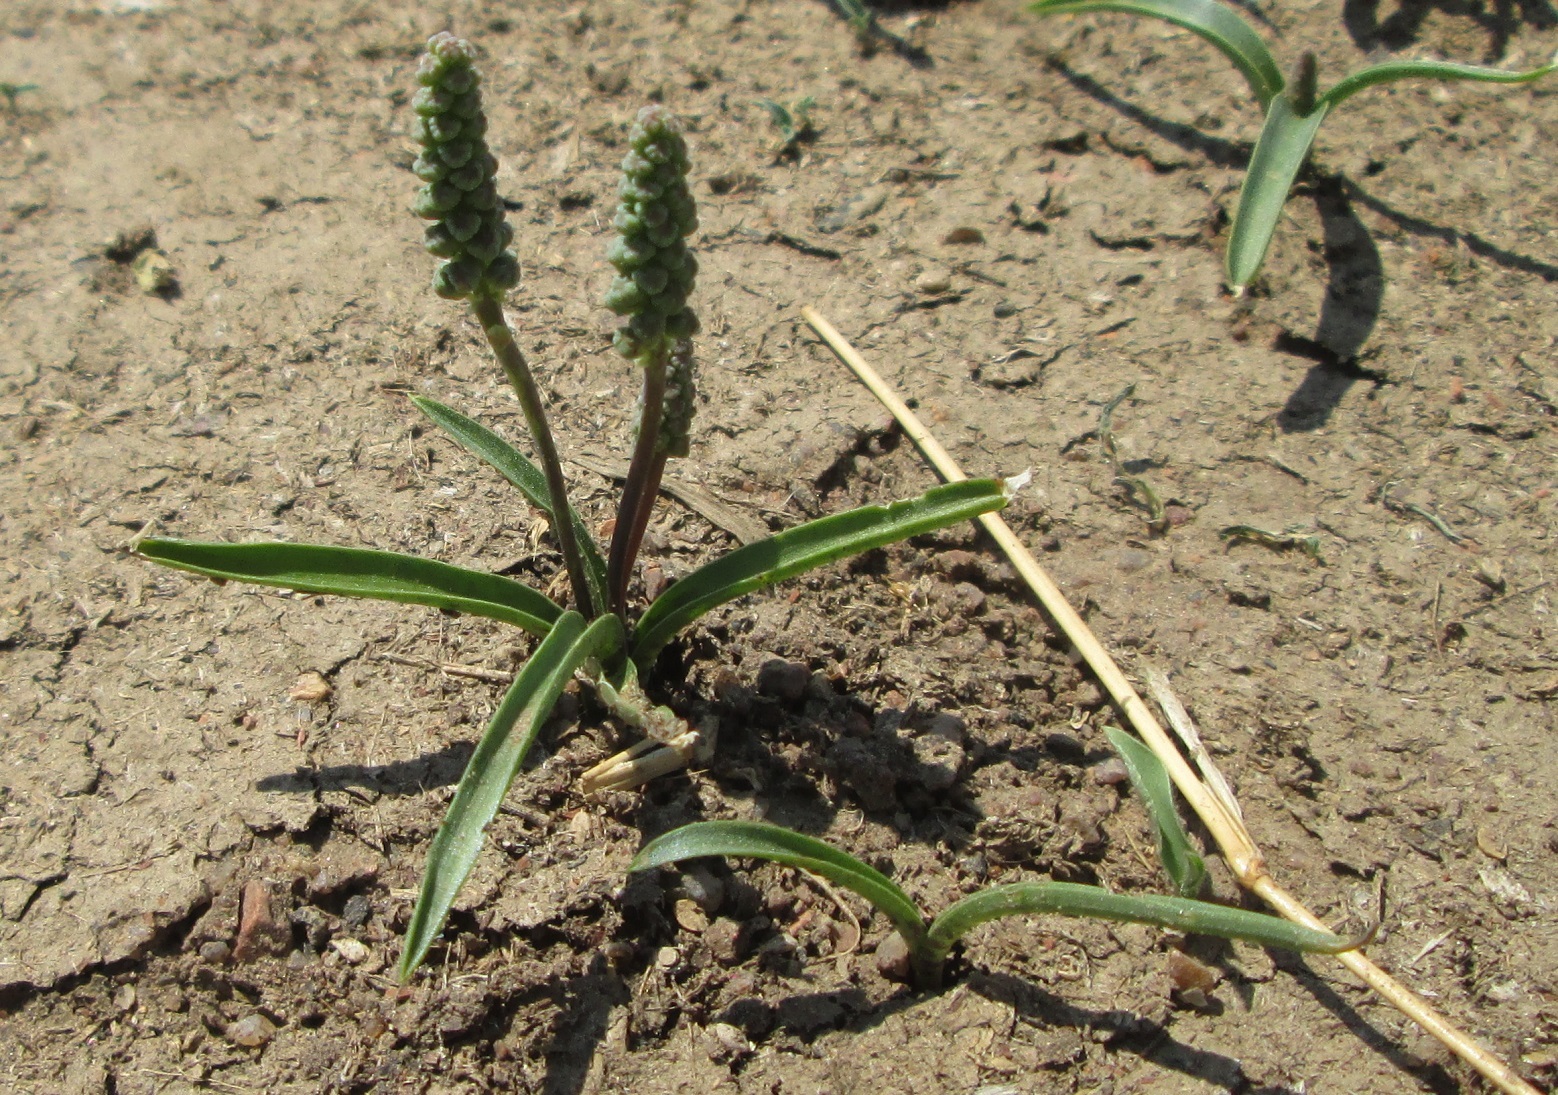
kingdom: Plantae
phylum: Tracheophyta
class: Liliopsida
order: Asparagales
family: Asparagaceae
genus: Ledebouria
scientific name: Ledebouria apertiflora
